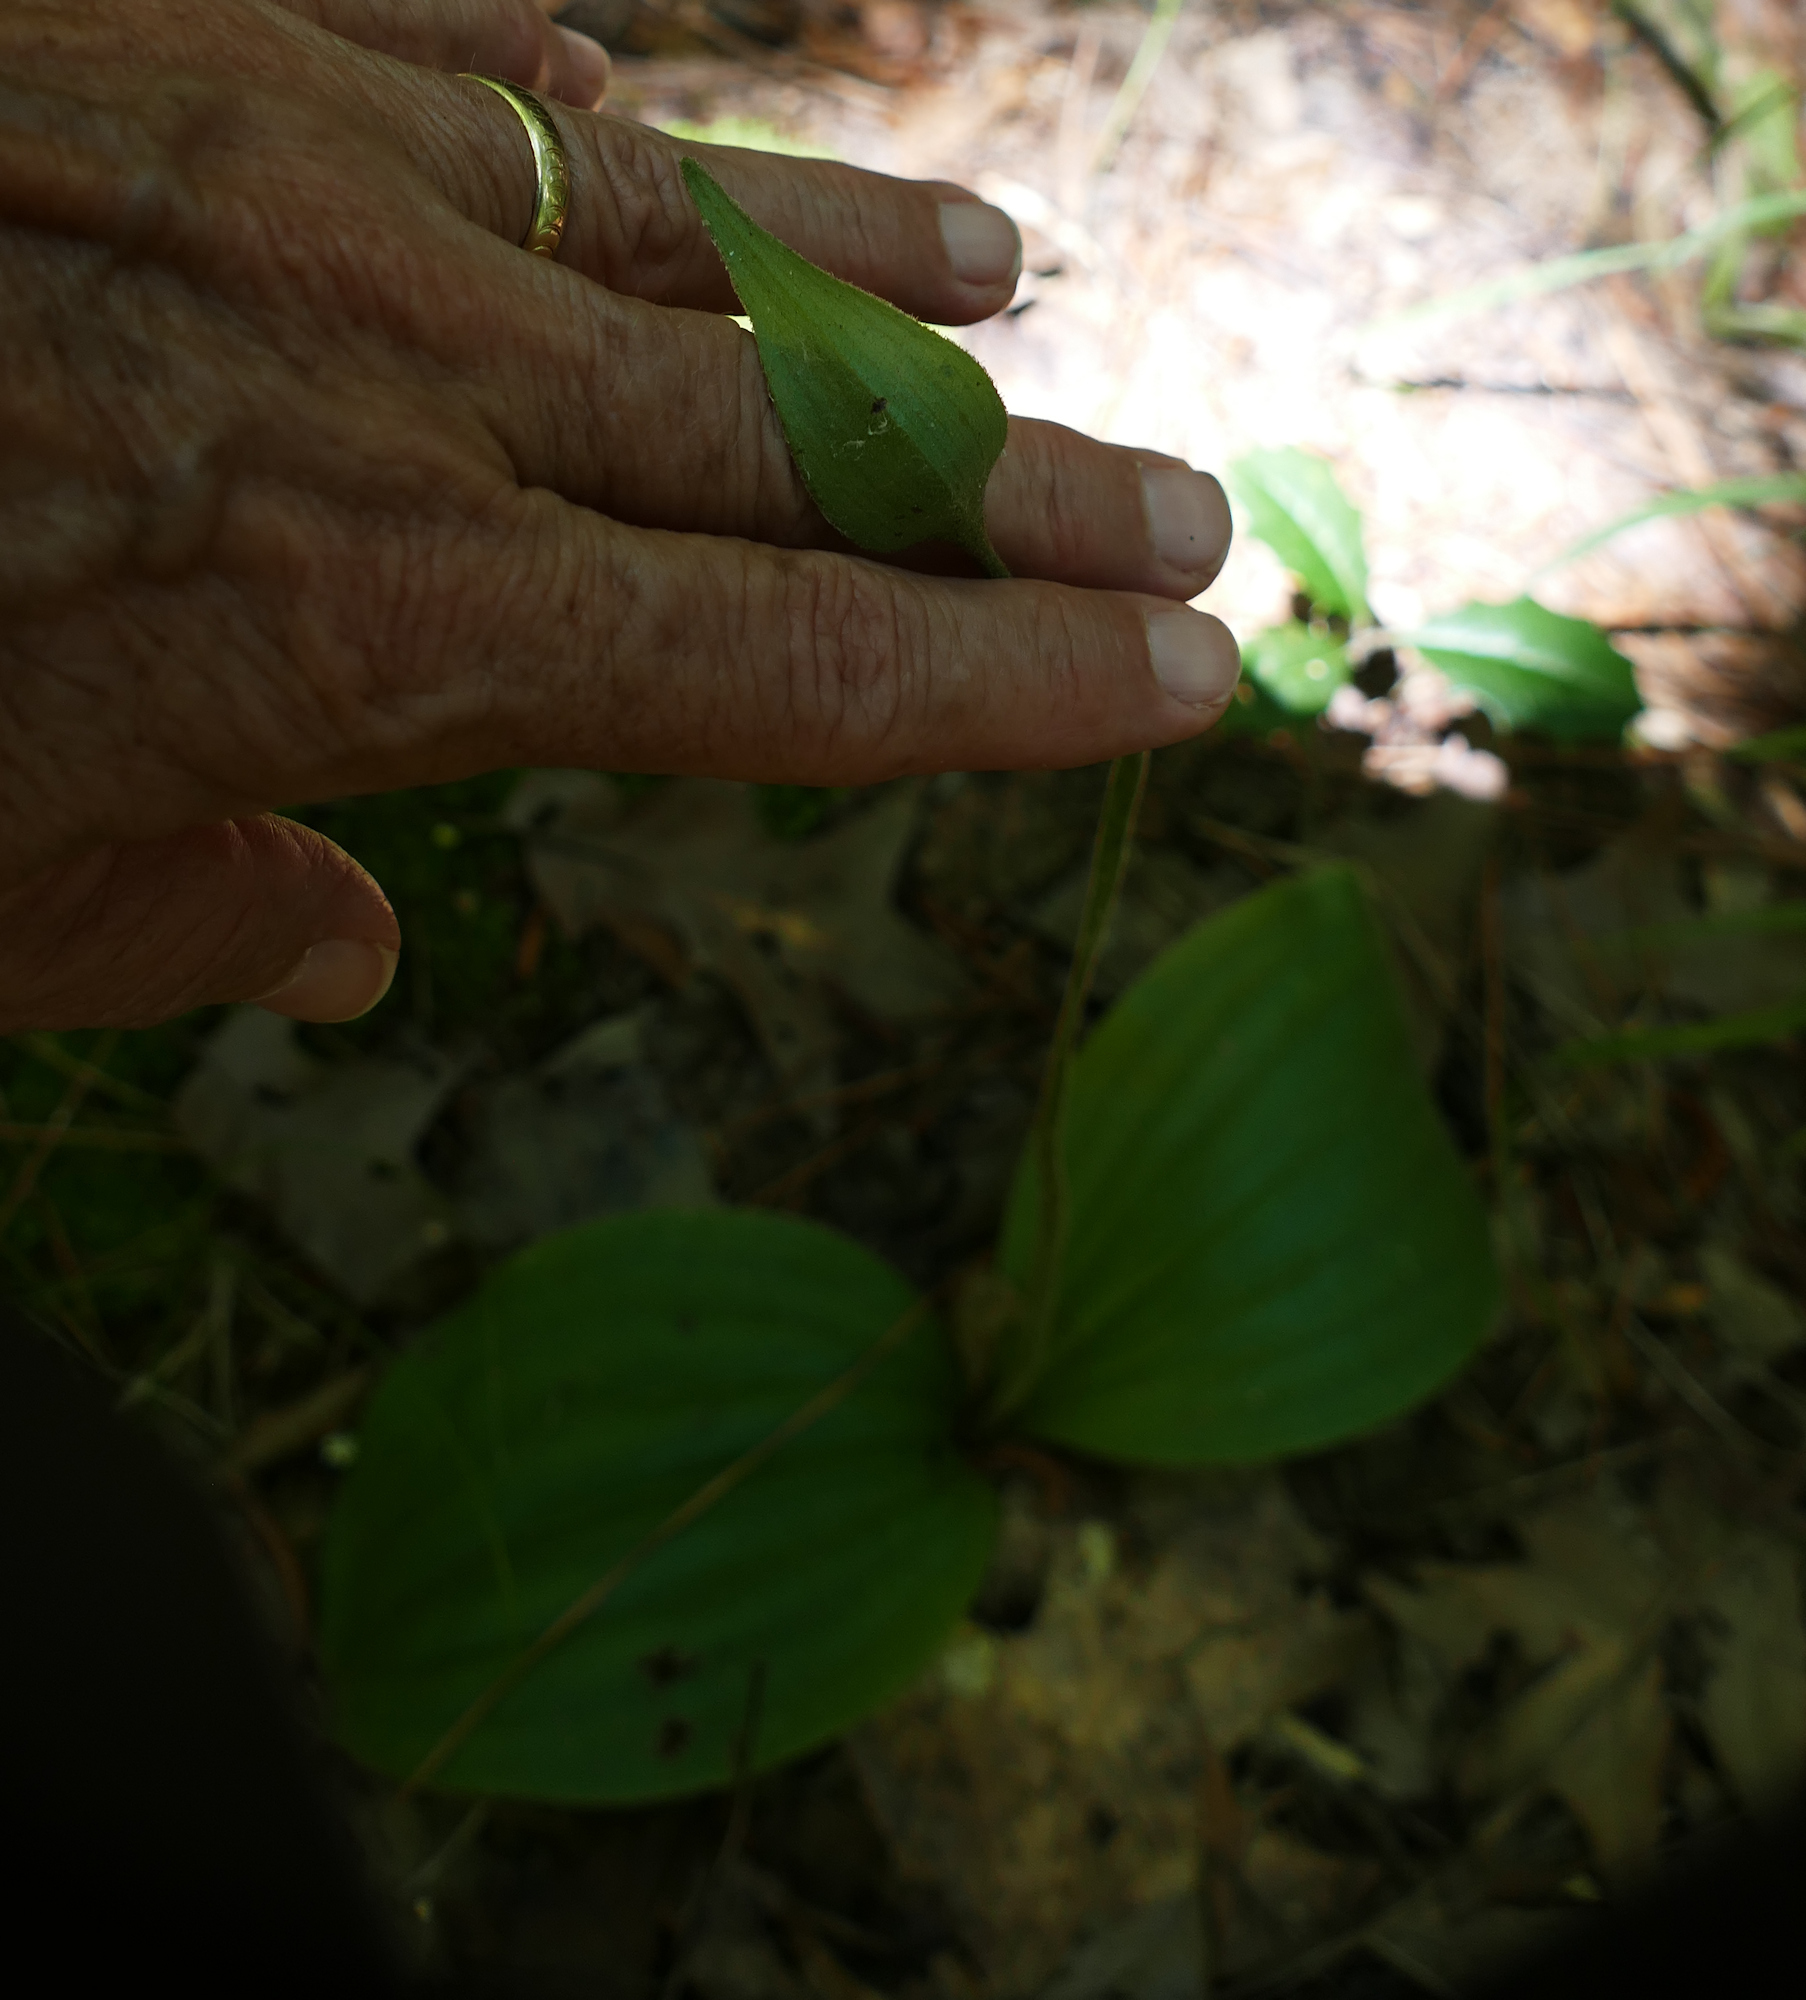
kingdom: Plantae
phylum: Tracheophyta
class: Liliopsida
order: Asparagales
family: Orchidaceae
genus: Cypripedium
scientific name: Cypripedium acaule
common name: Pink lady's-slipper
